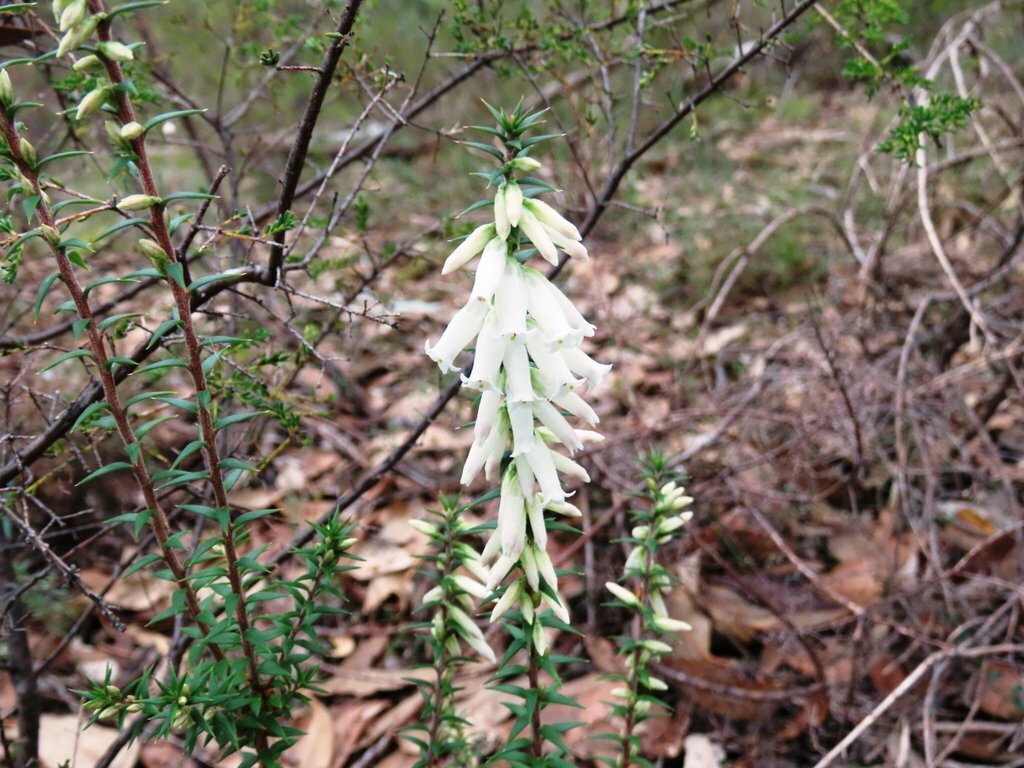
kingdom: Plantae
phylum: Tracheophyta
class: Magnoliopsida
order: Ericales
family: Ericaceae
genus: Epacris
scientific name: Epacris impressa
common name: Common-heath
